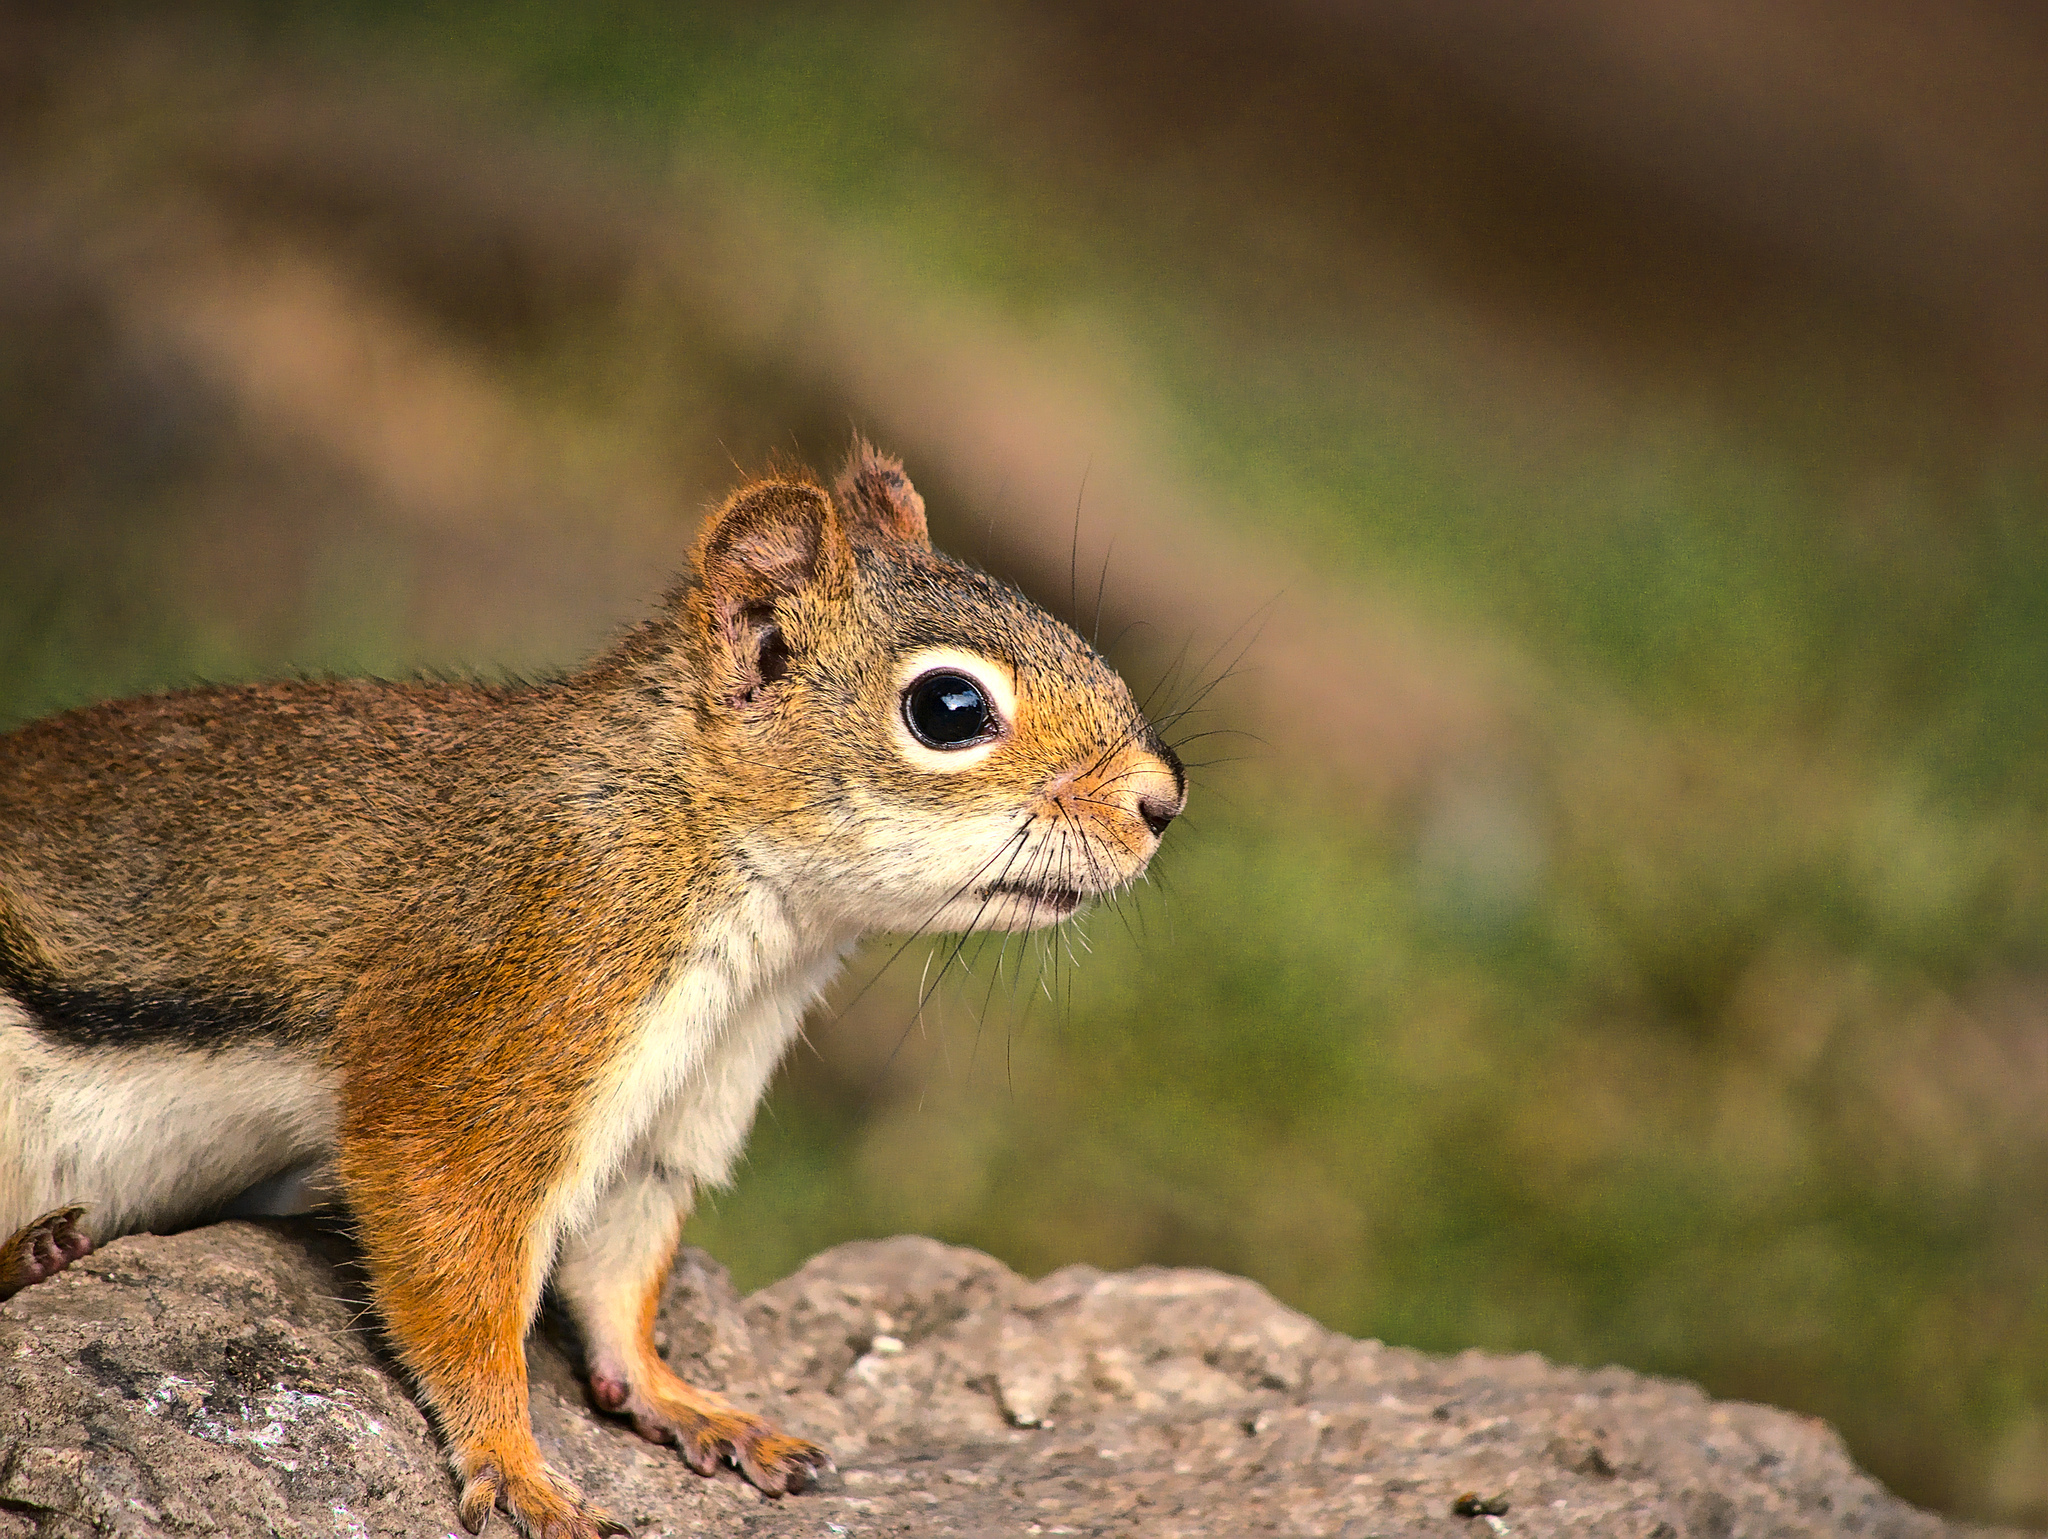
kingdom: Animalia
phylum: Chordata
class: Mammalia
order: Rodentia
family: Sciuridae
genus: Tamiasciurus
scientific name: Tamiasciurus hudsonicus
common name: Red squirrel
